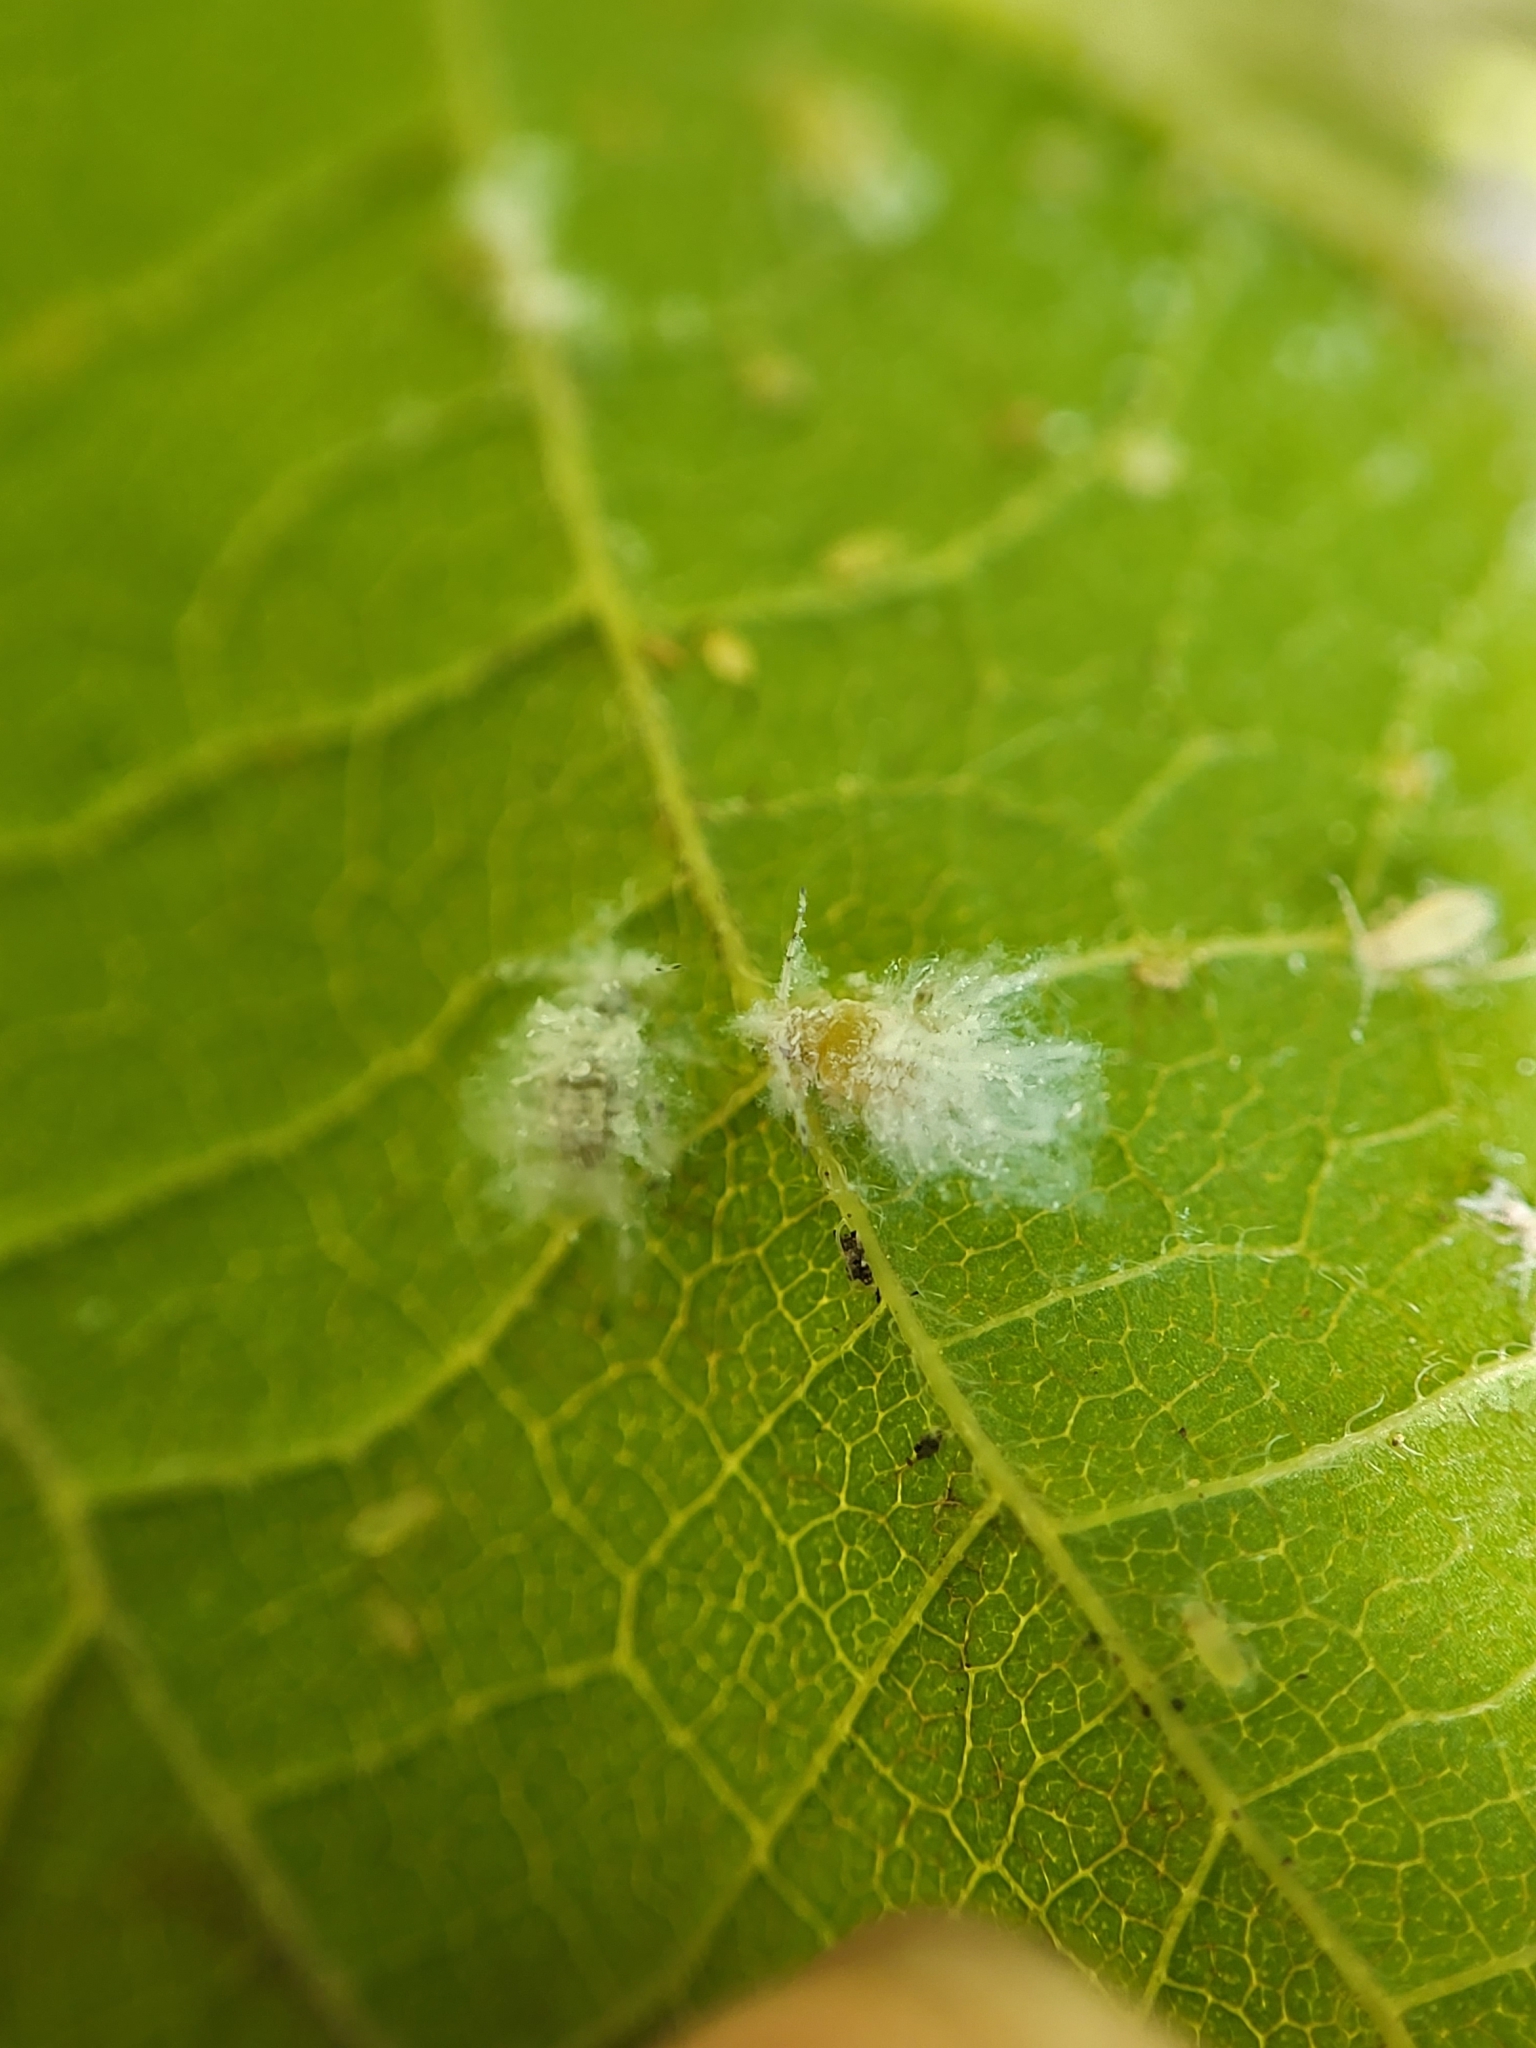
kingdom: Animalia
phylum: Arthropoda
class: Insecta
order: Hemiptera
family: Aphididae
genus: Shivaphis
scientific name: Shivaphis celti
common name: Asian wooly hackberry aphid
